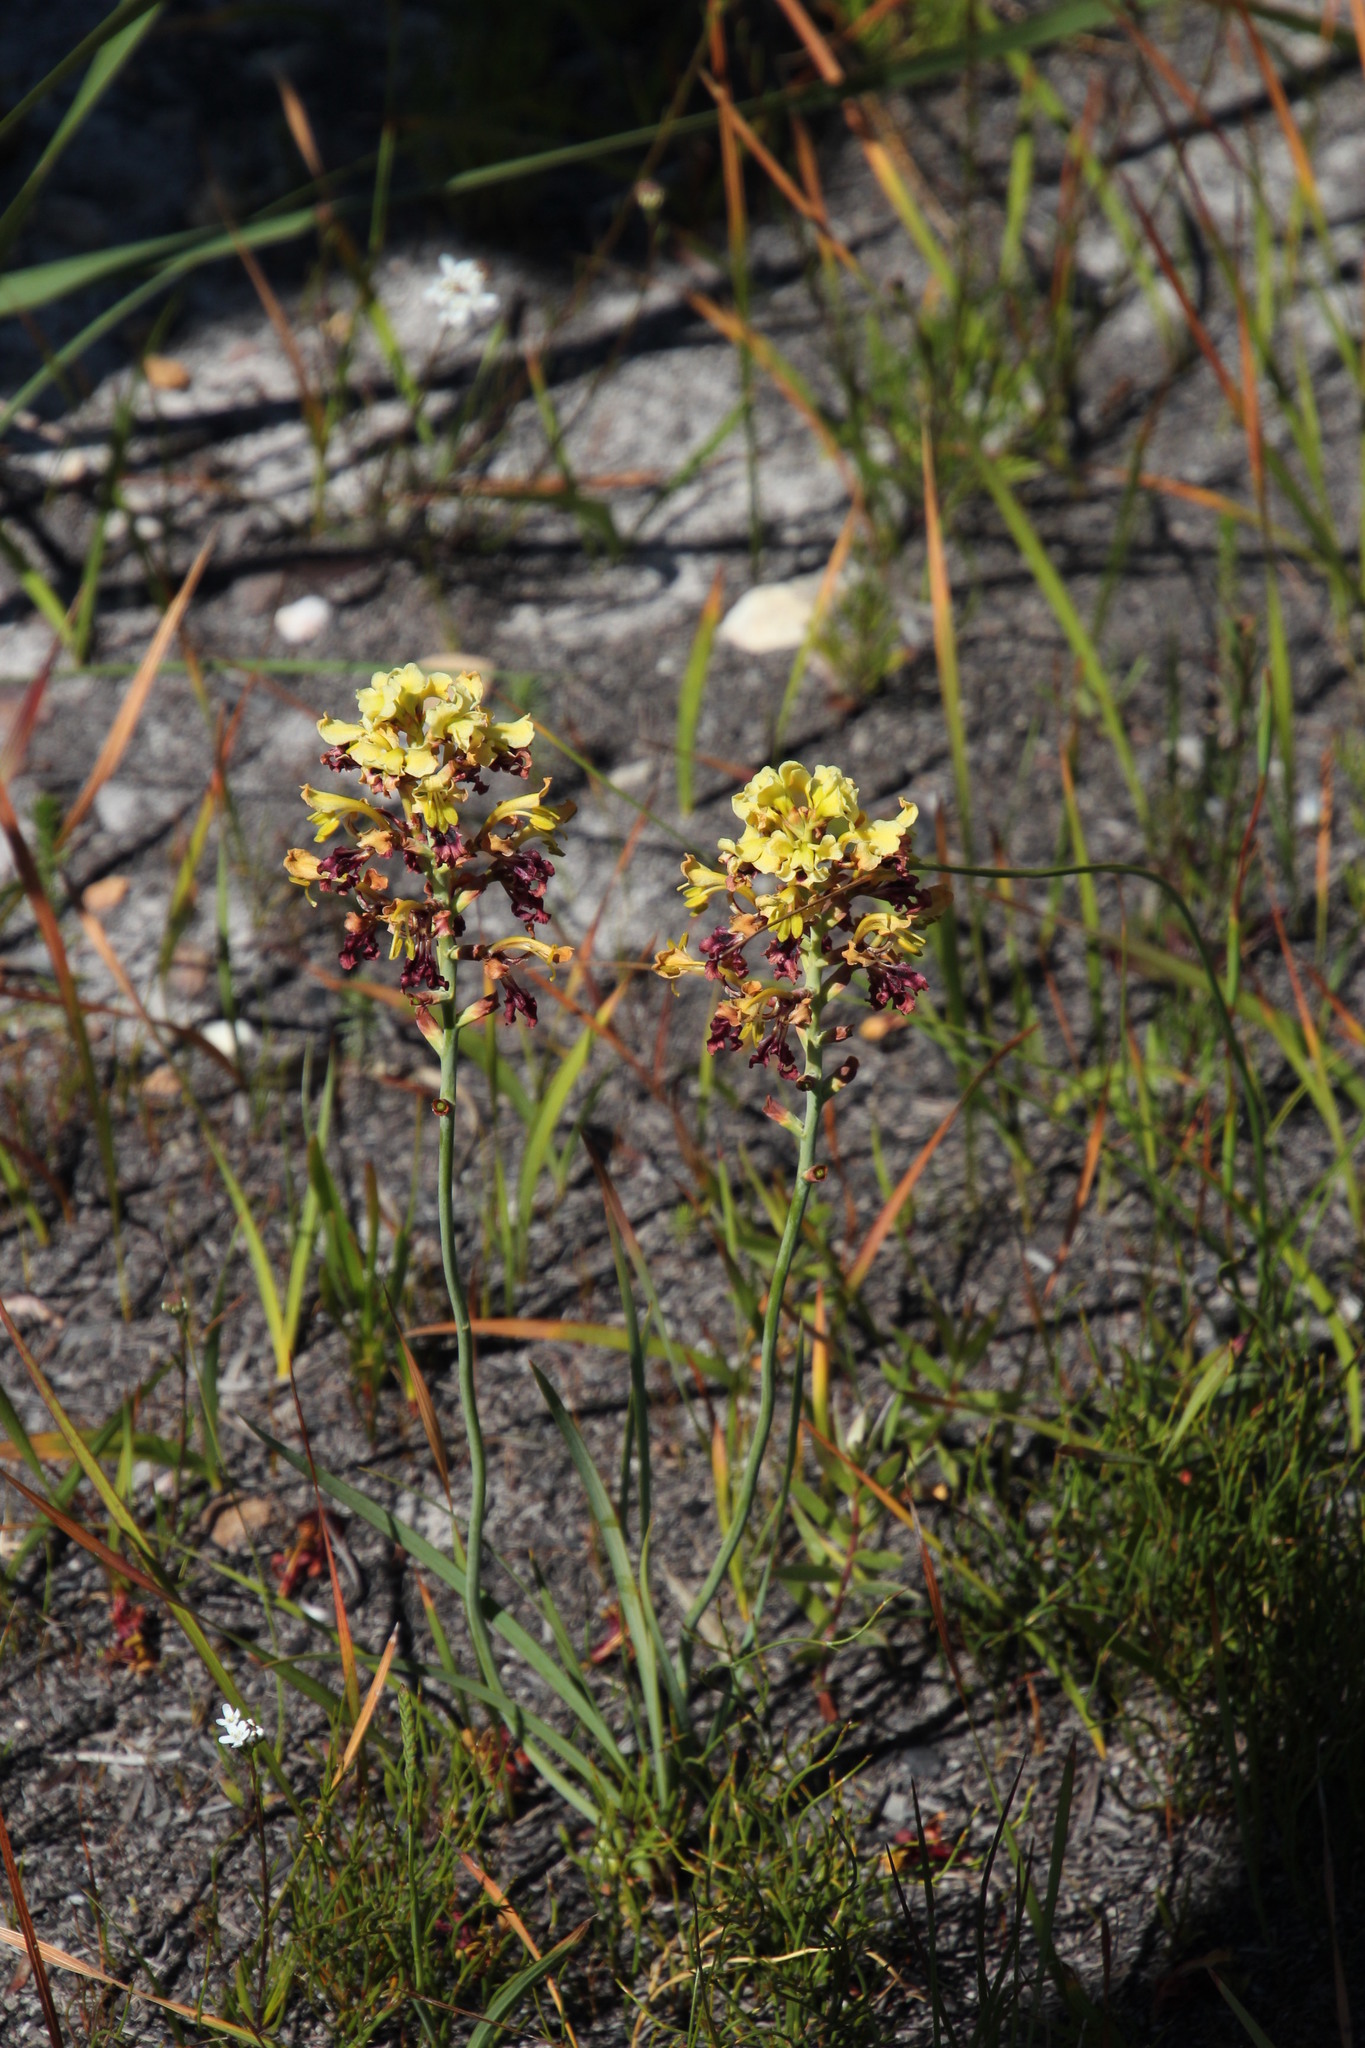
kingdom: Plantae
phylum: Tracheophyta
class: Liliopsida
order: Asparagales
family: Iridaceae
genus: Tritoniopsis
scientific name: Tritoniopsis parviflora
